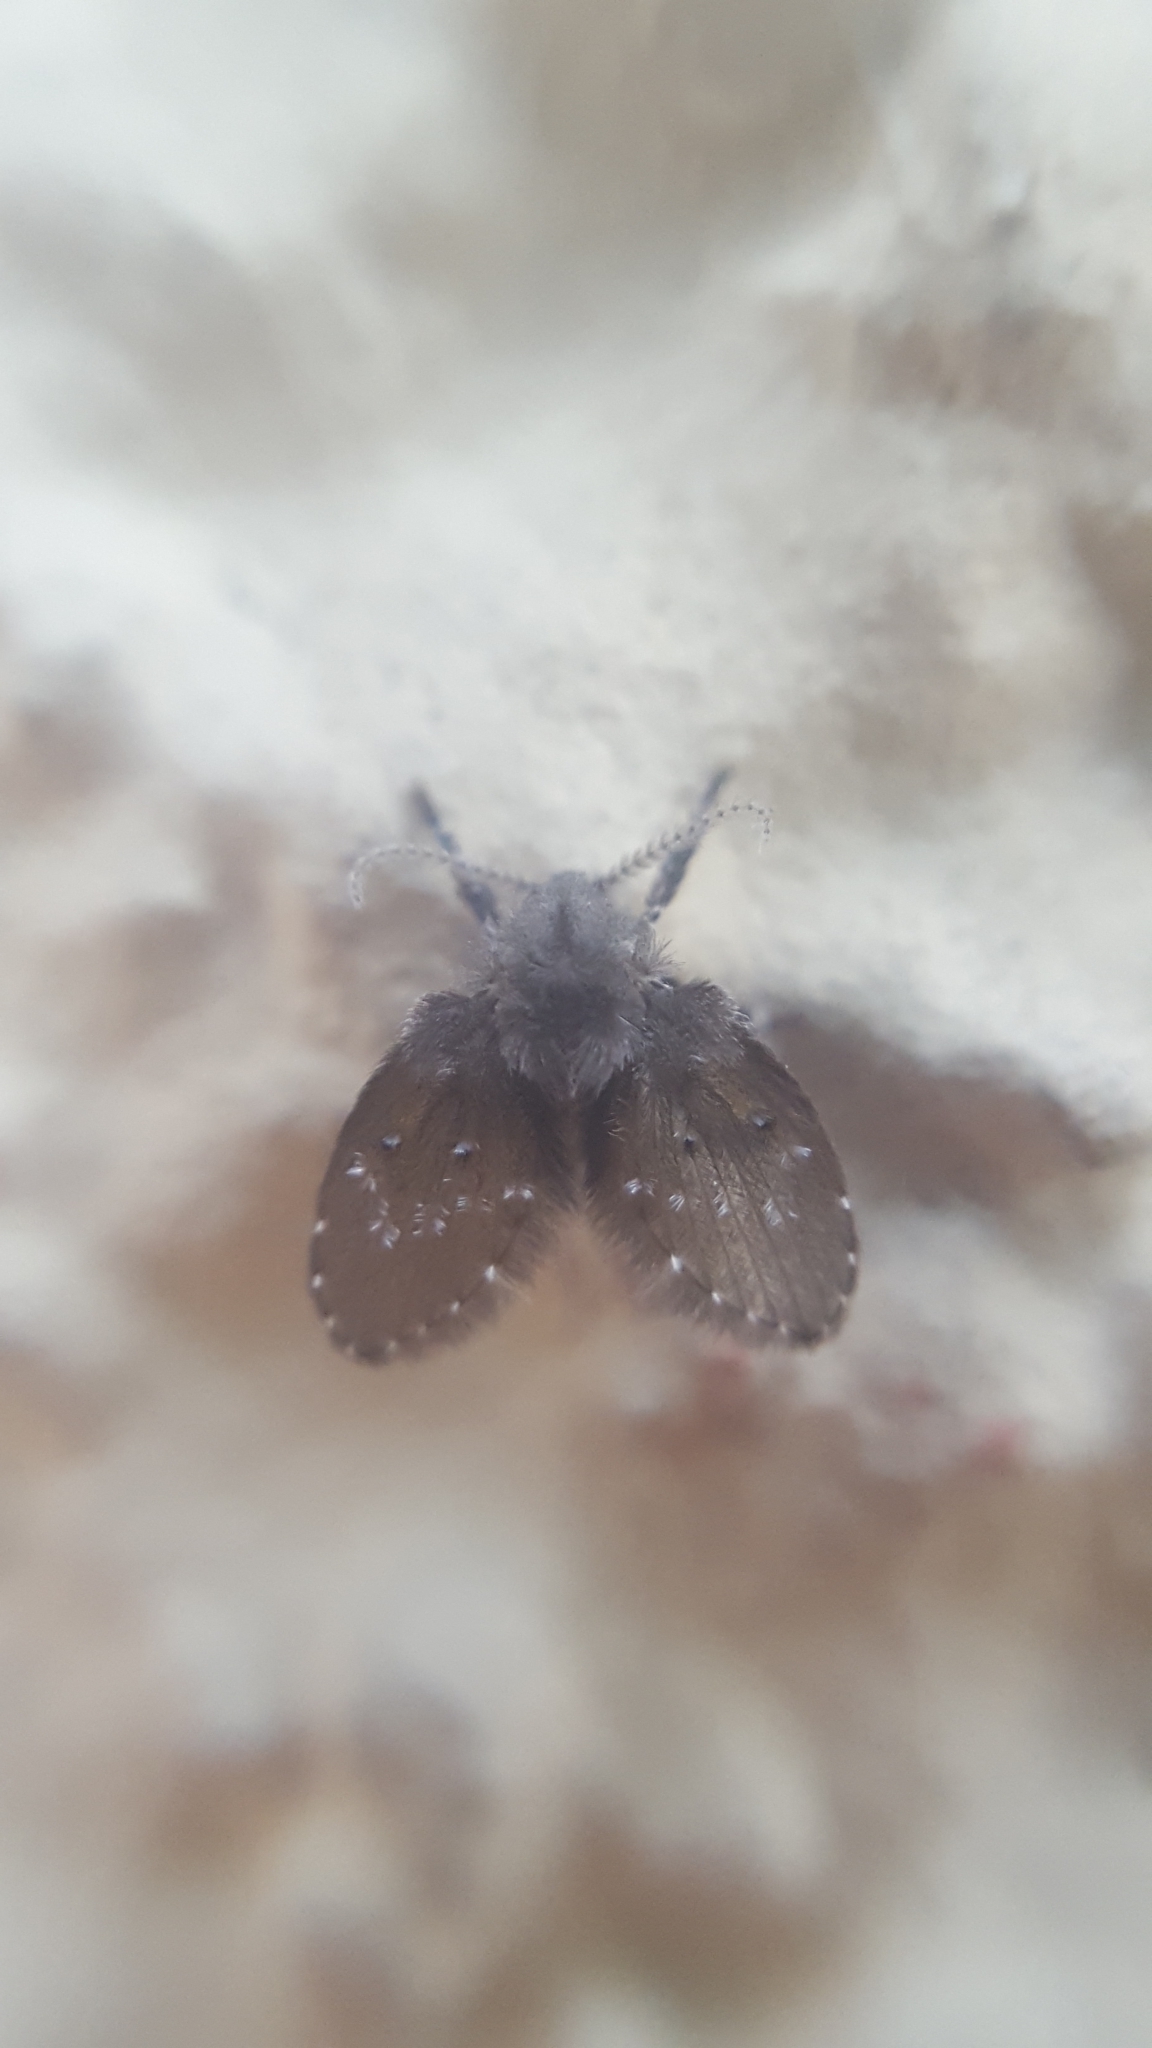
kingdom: Animalia
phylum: Arthropoda
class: Insecta
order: Diptera
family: Psychodidae
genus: Clogmia
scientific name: Clogmia albipunctatus
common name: White-spotted moth fly
